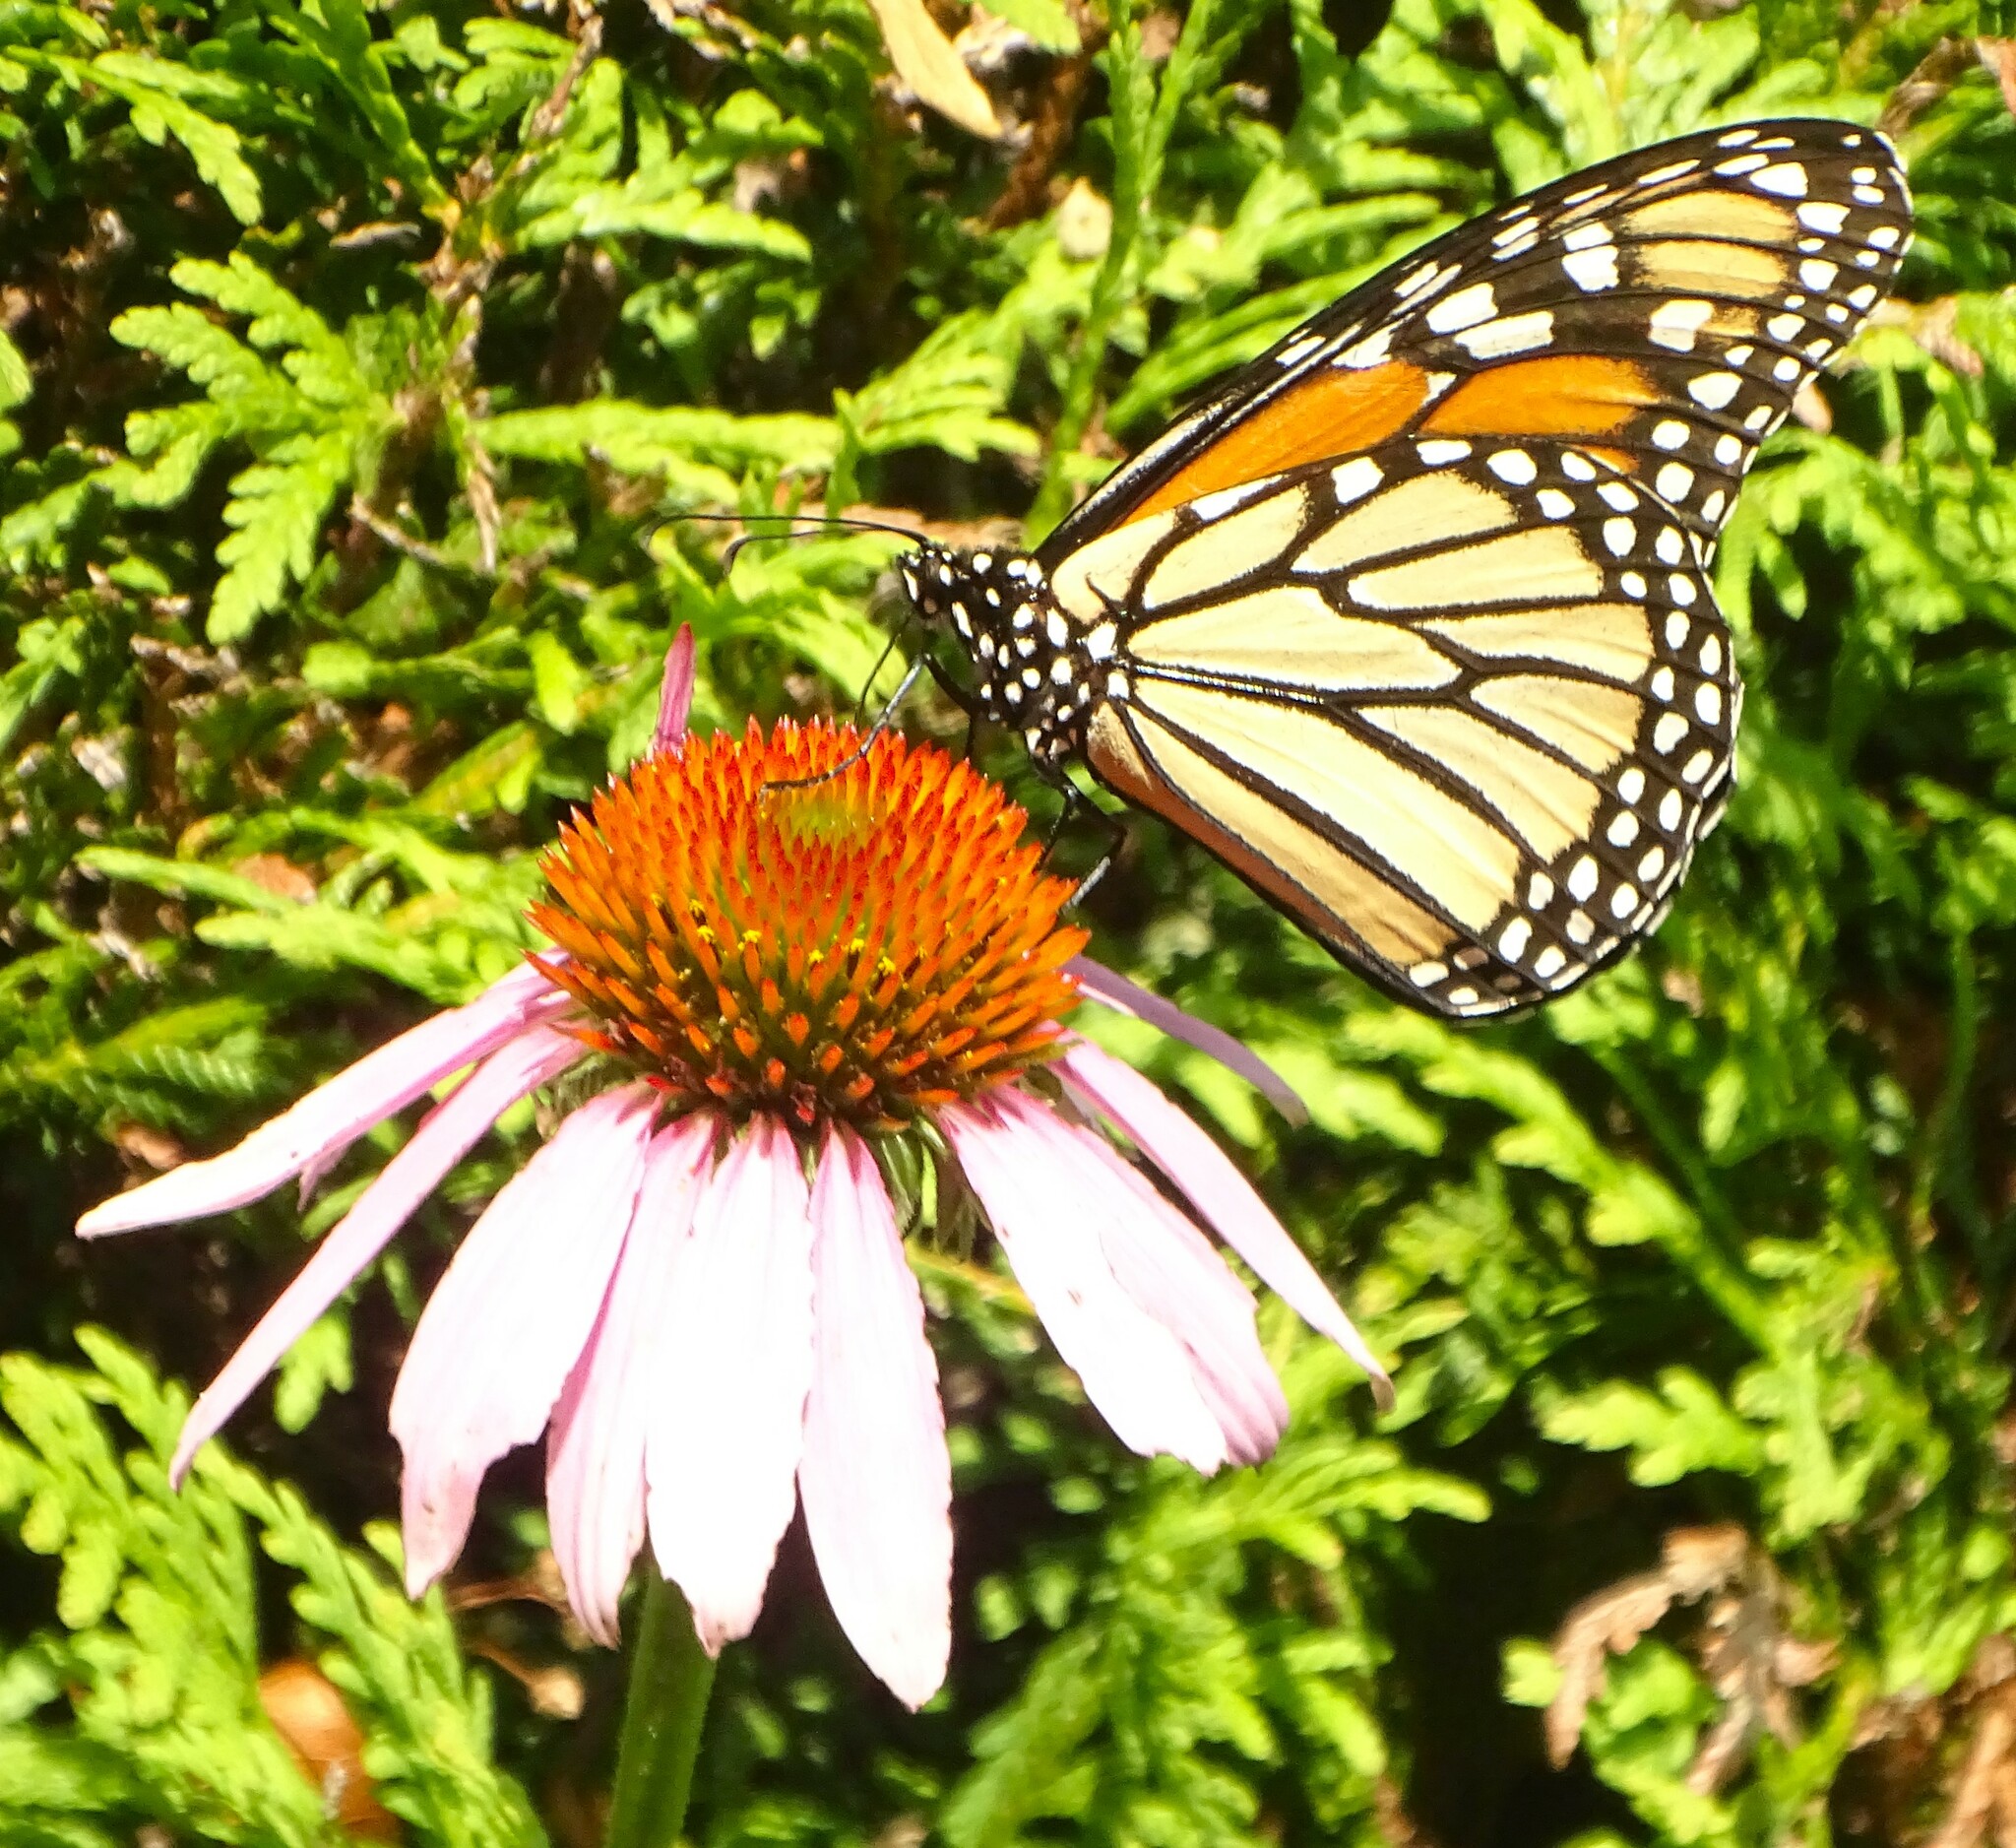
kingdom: Animalia
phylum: Arthropoda
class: Insecta
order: Lepidoptera
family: Nymphalidae
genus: Danaus
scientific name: Danaus plexippus
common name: Monarch
